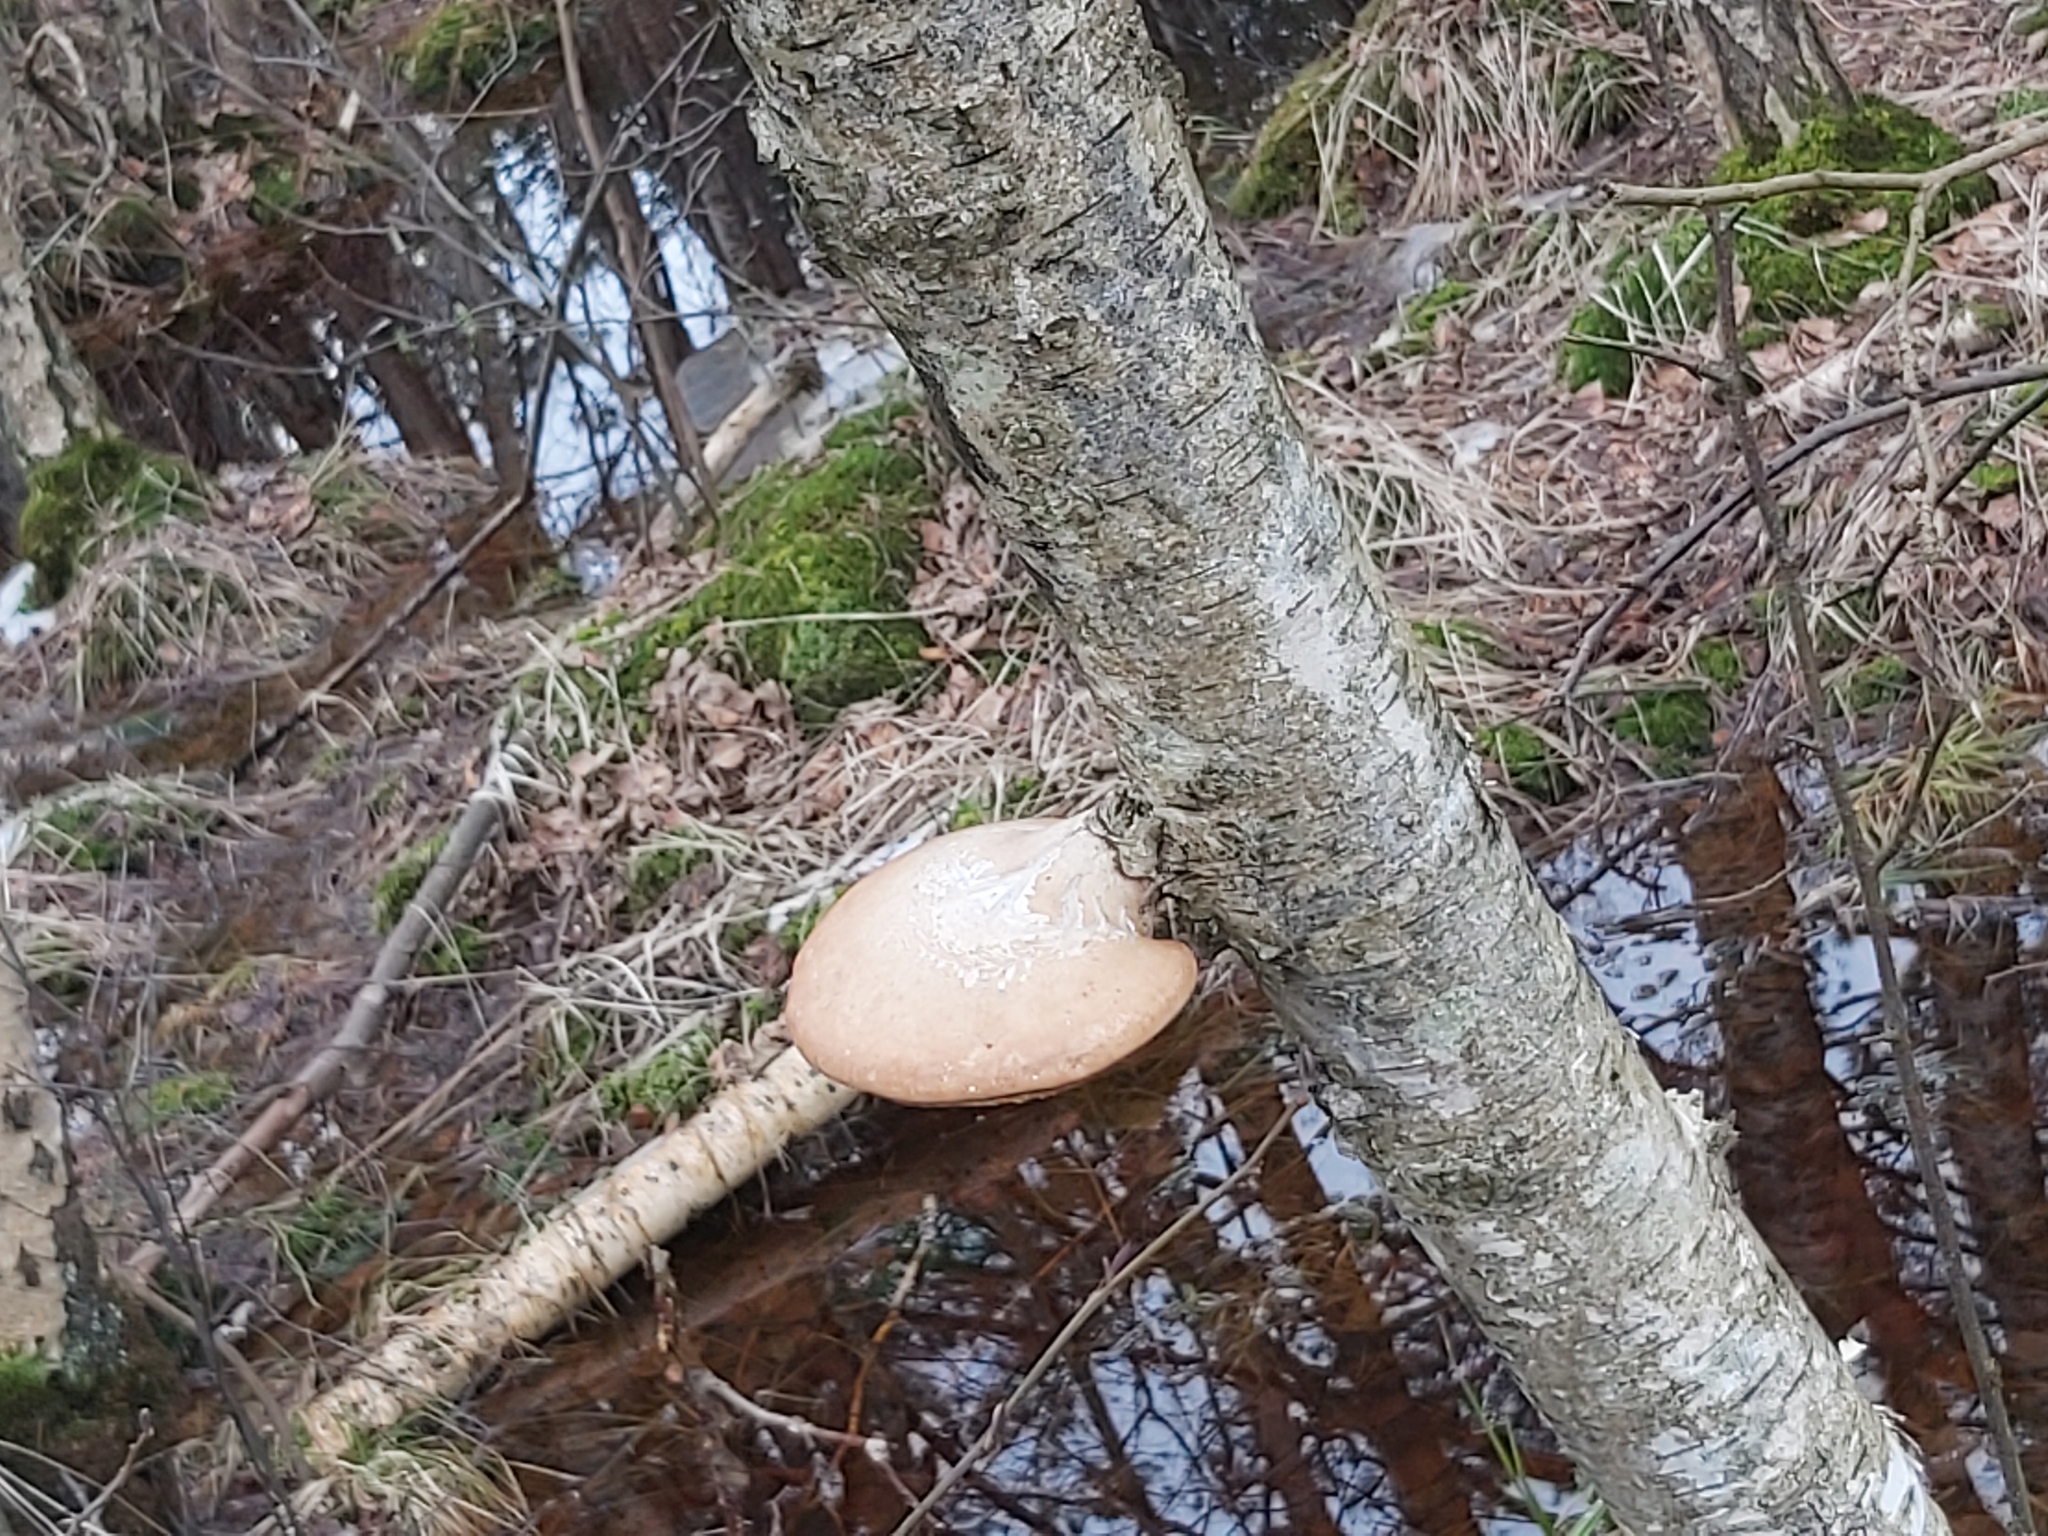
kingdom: Fungi
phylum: Basidiomycota
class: Agaricomycetes
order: Polyporales
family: Fomitopsidaceae
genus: Fomitopsis
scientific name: Fomitopsis betulina
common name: Birch polypore
